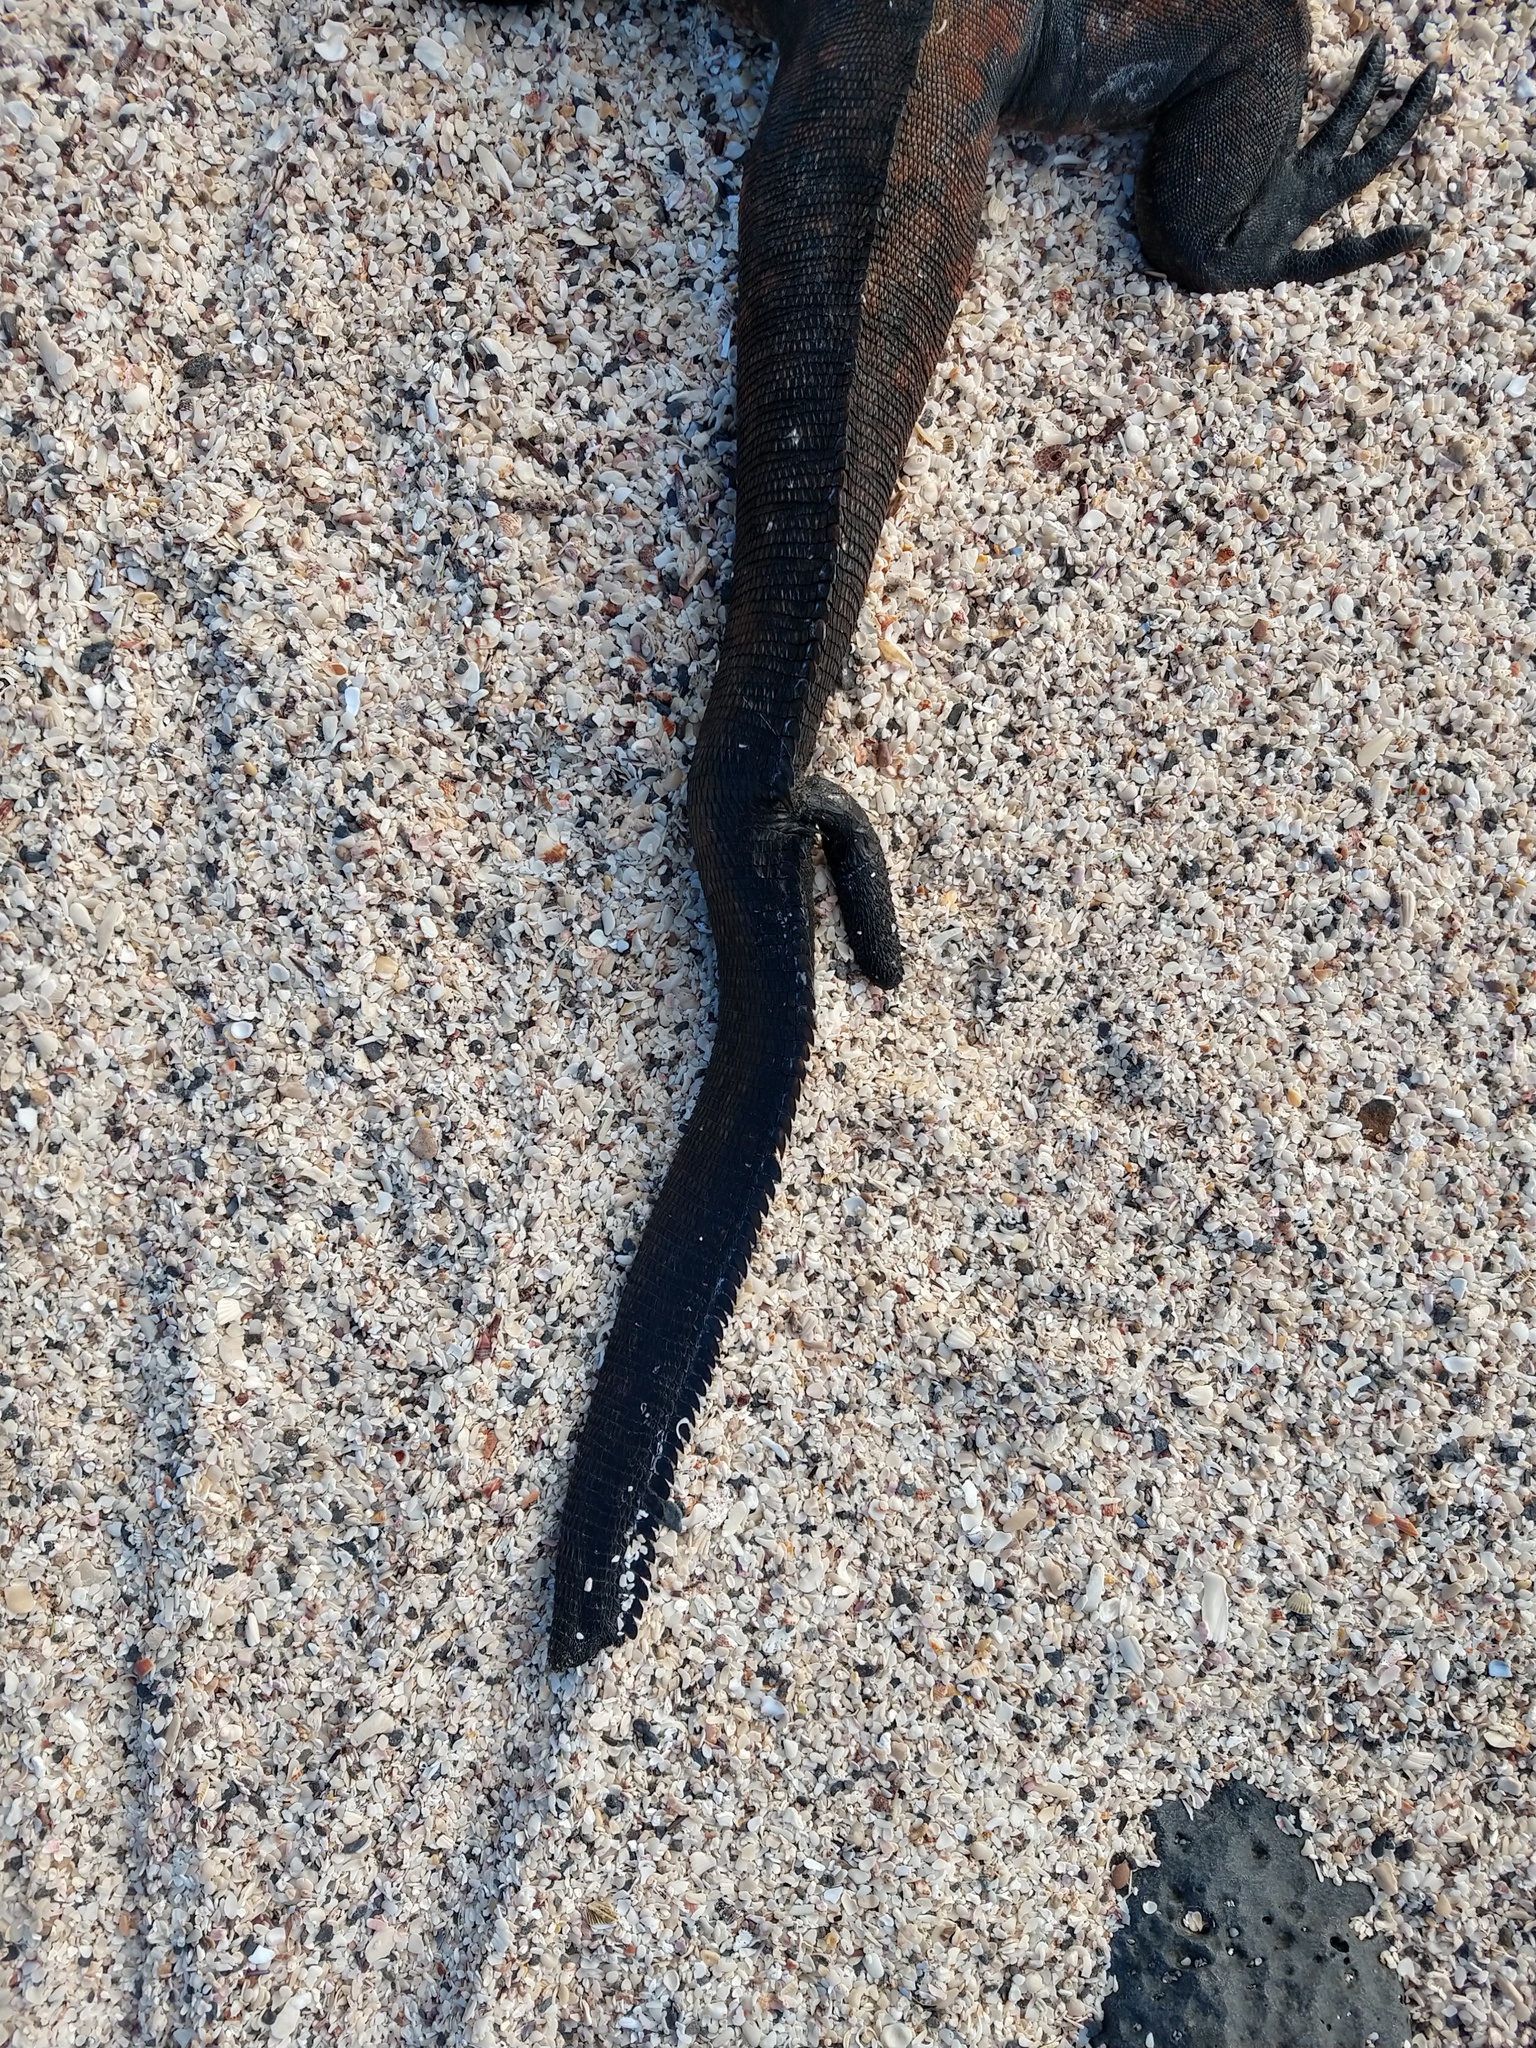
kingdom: Animalia
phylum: Chordata
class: Squamata
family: Iguanidae
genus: Amblyrhynchus
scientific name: Amblyrhynchus cristatus
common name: Marine iguana
